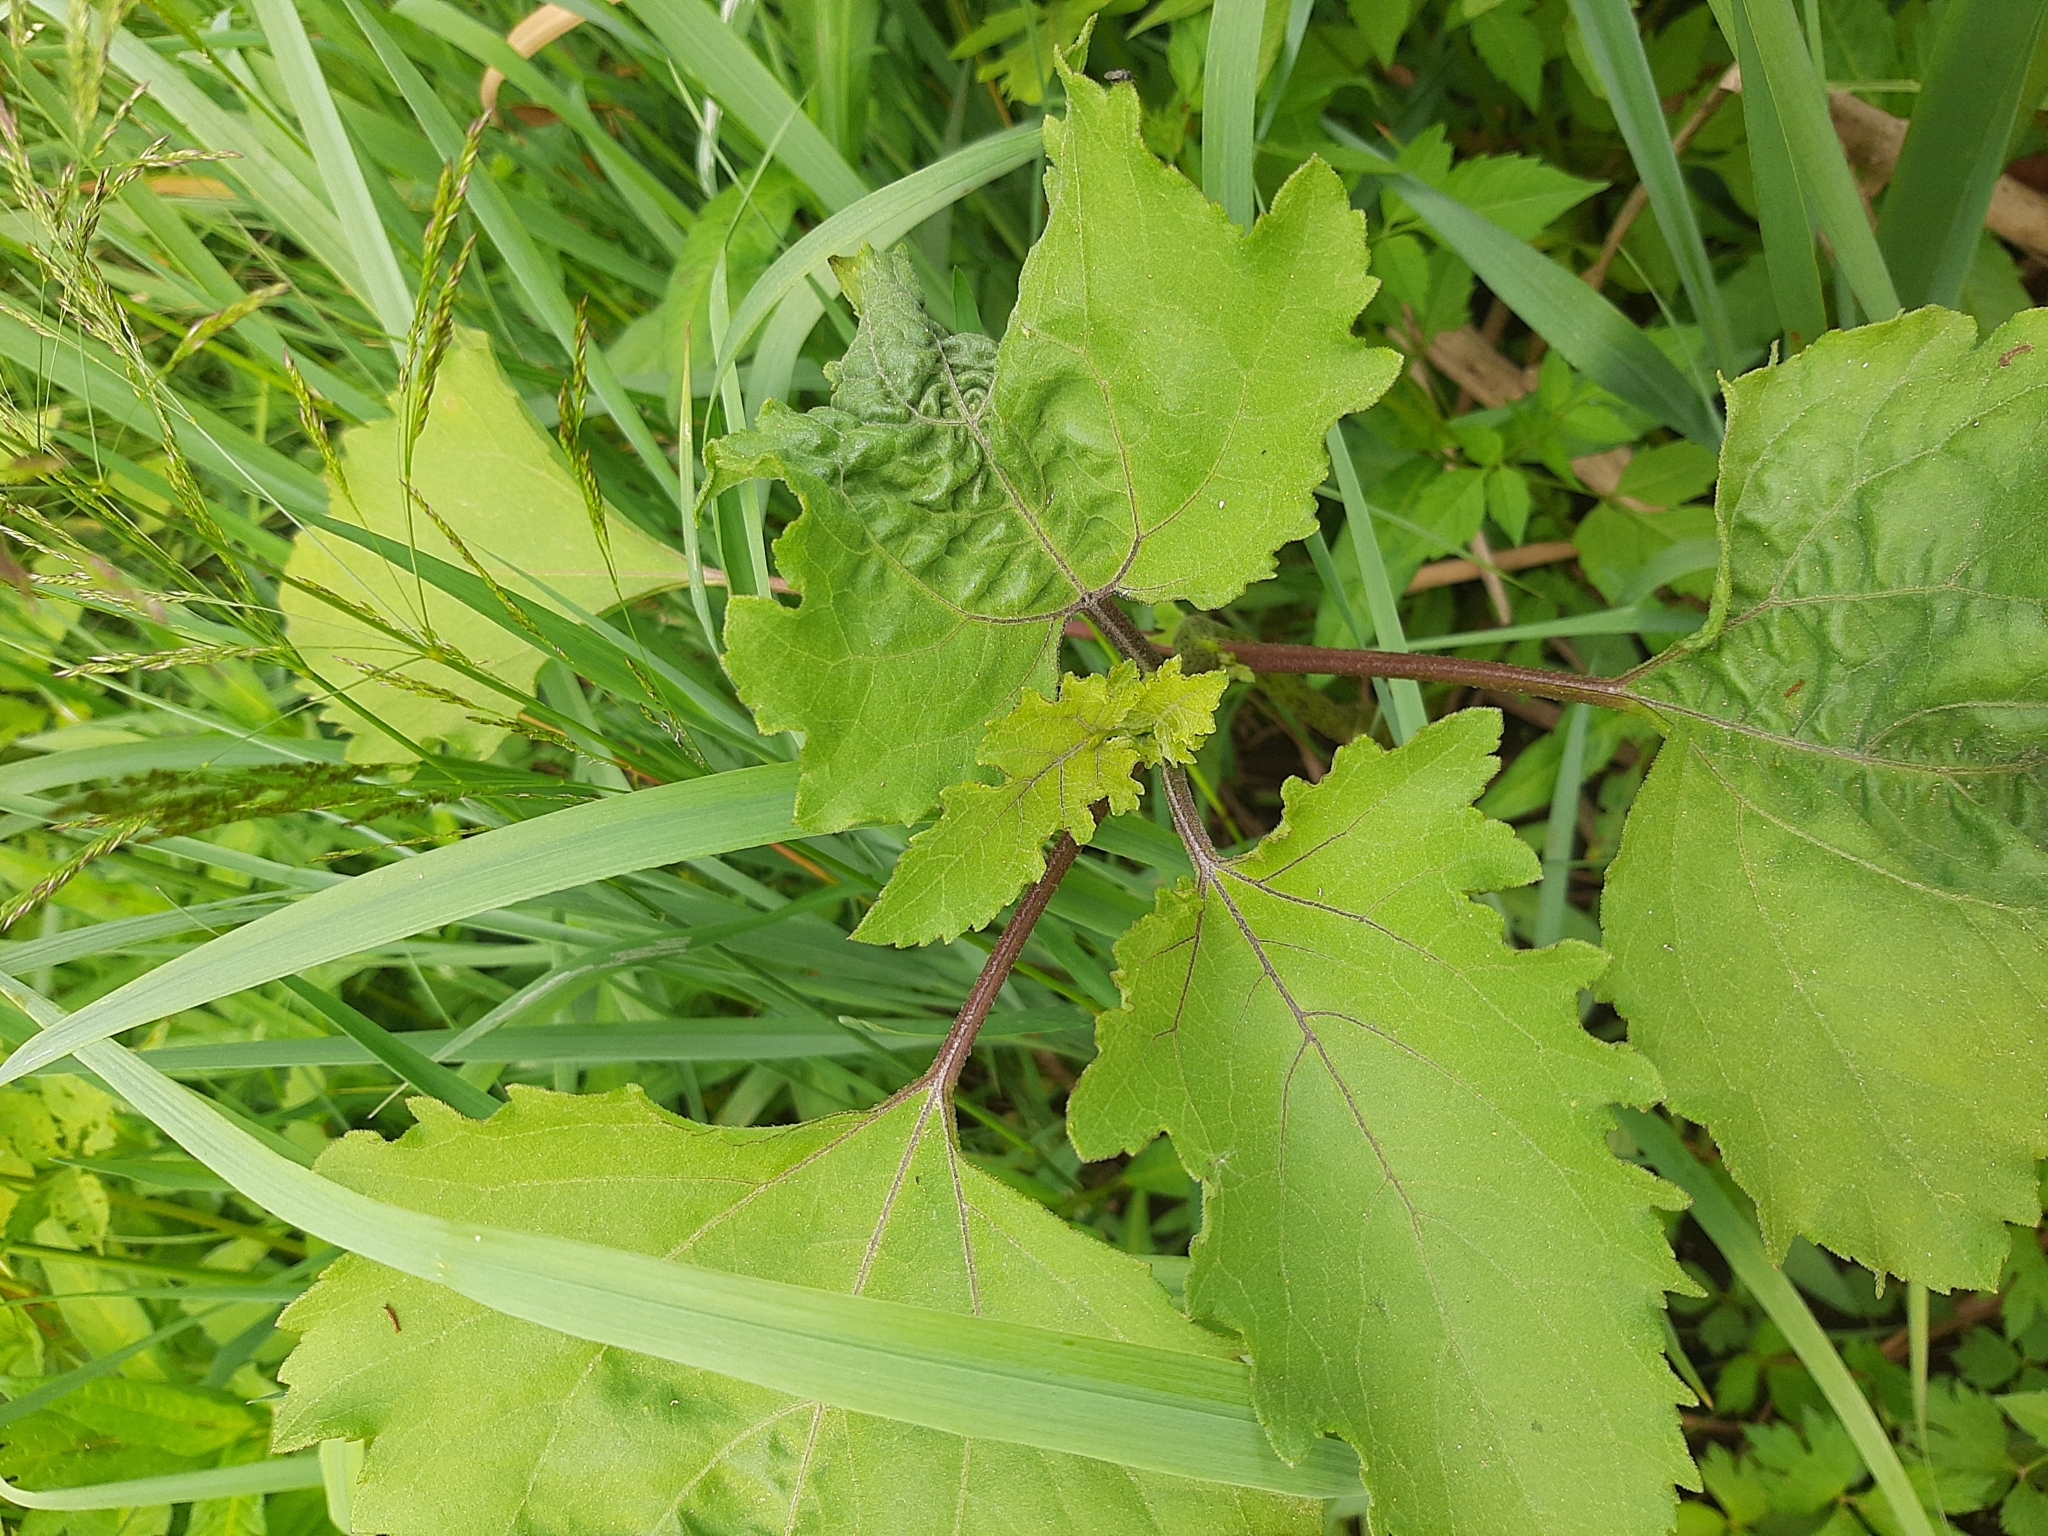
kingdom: Plantae
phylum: Tracheophyta
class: Magnoliopsida
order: Asterales
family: Asteraceae
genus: Xanthium
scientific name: Xanthium orientale
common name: Californian burr
